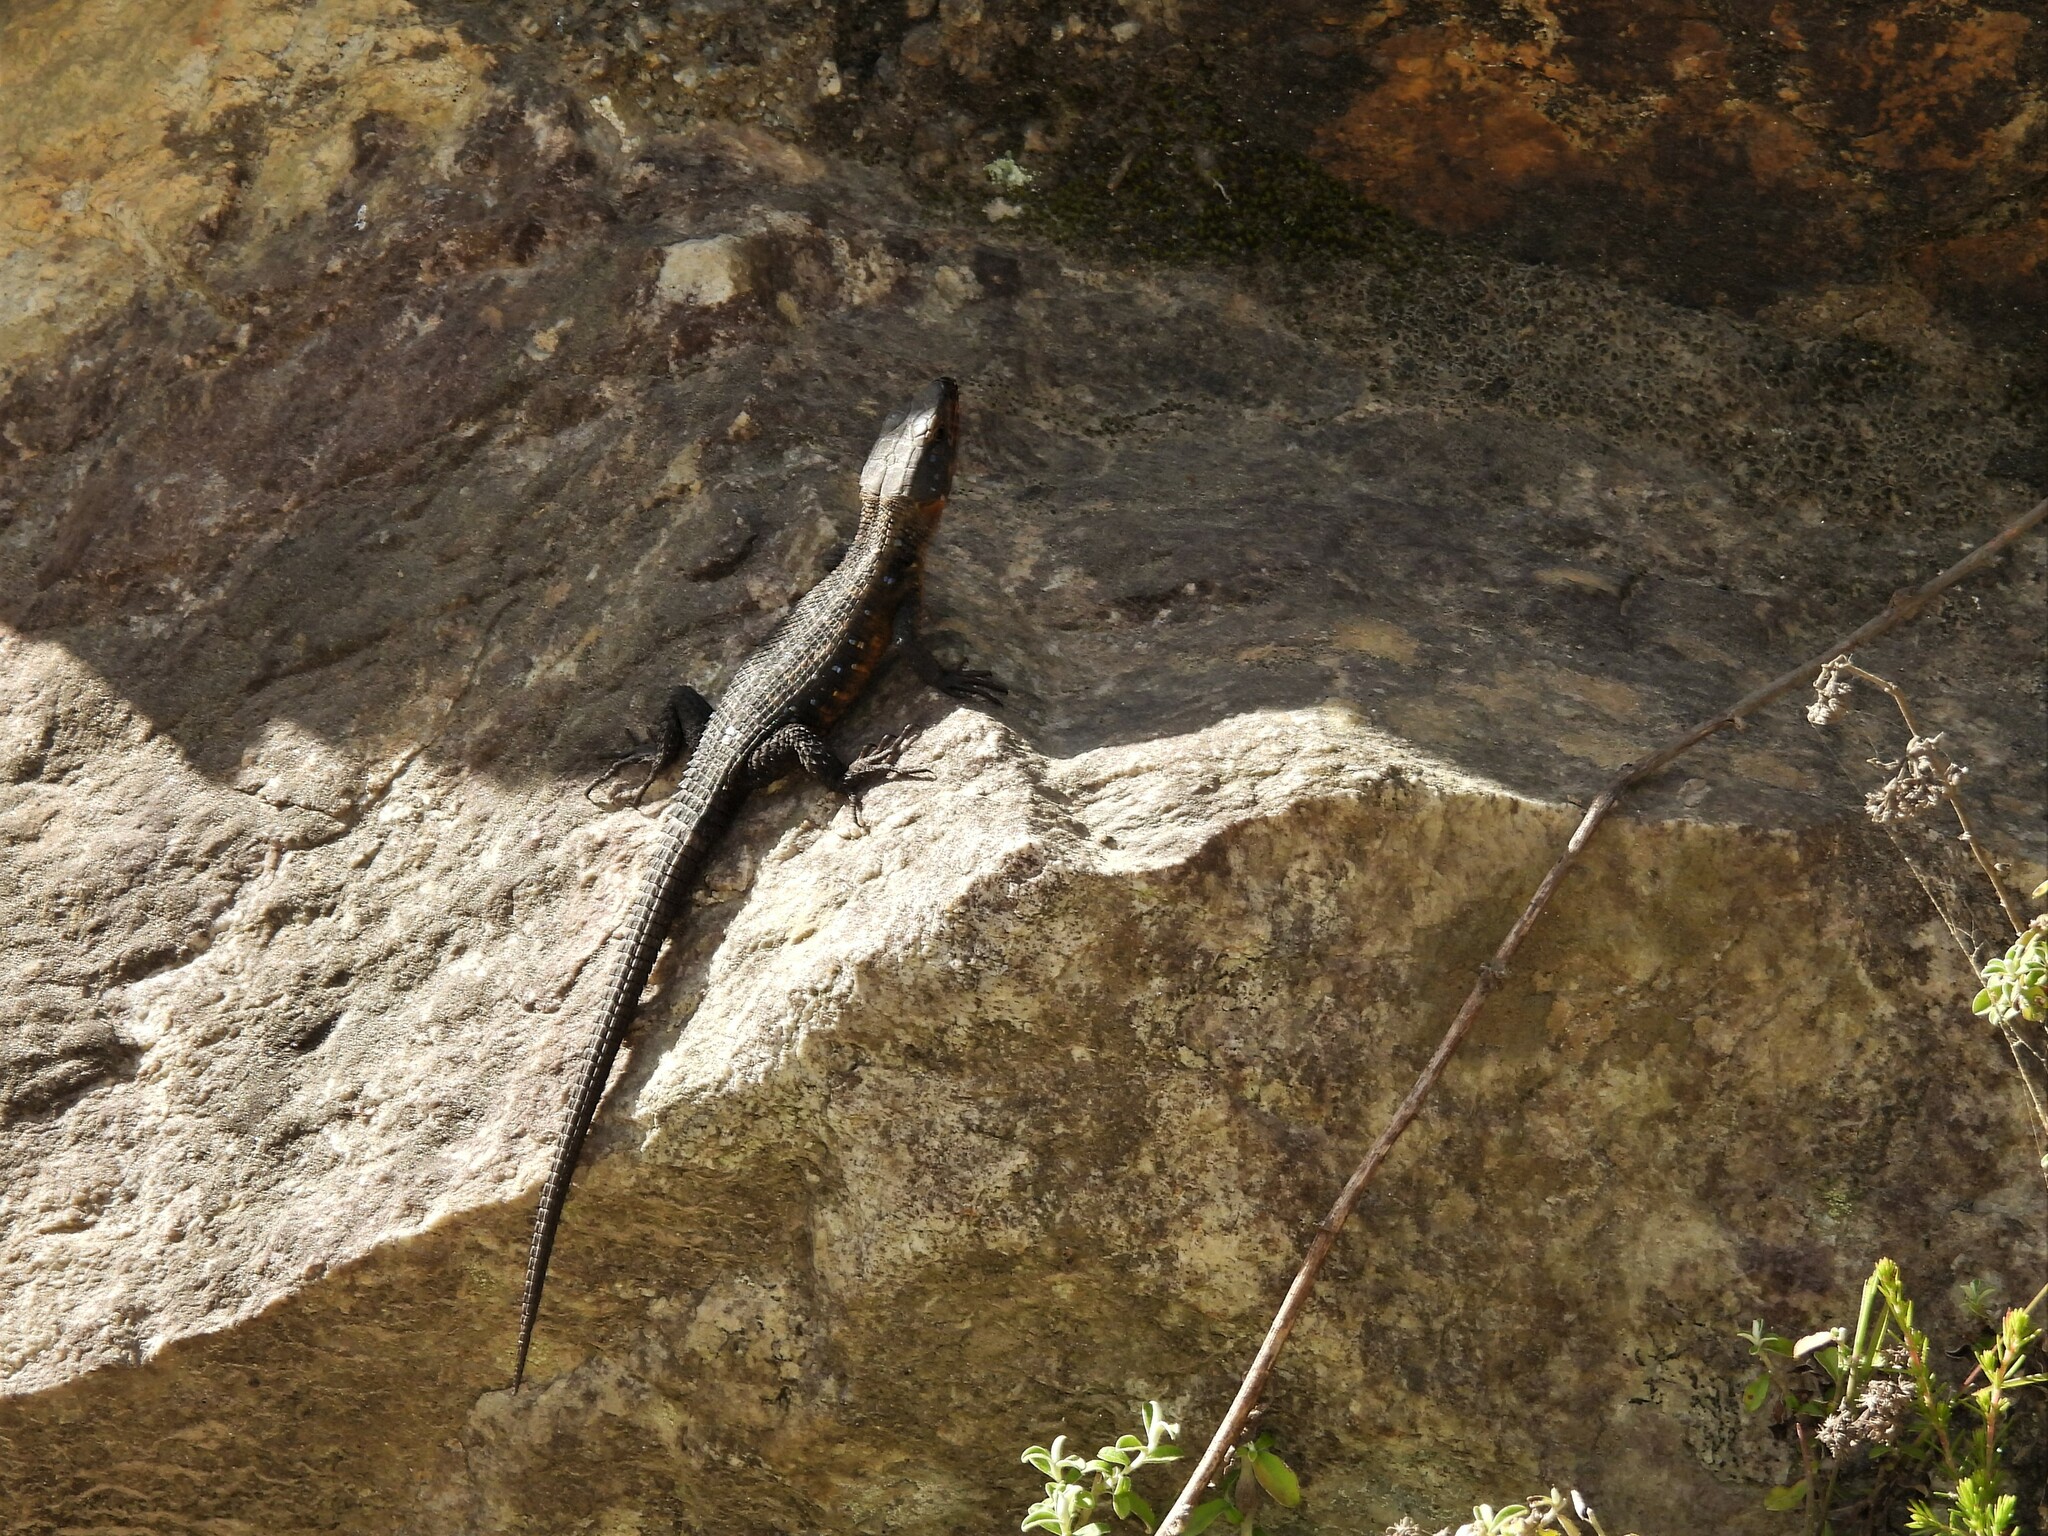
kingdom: Animalia
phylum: Chordata
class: Squamata
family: Cordylidae
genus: Ninurta
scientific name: Ninurta coeruleopunctatus
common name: Blue-spotted girdled lizard
